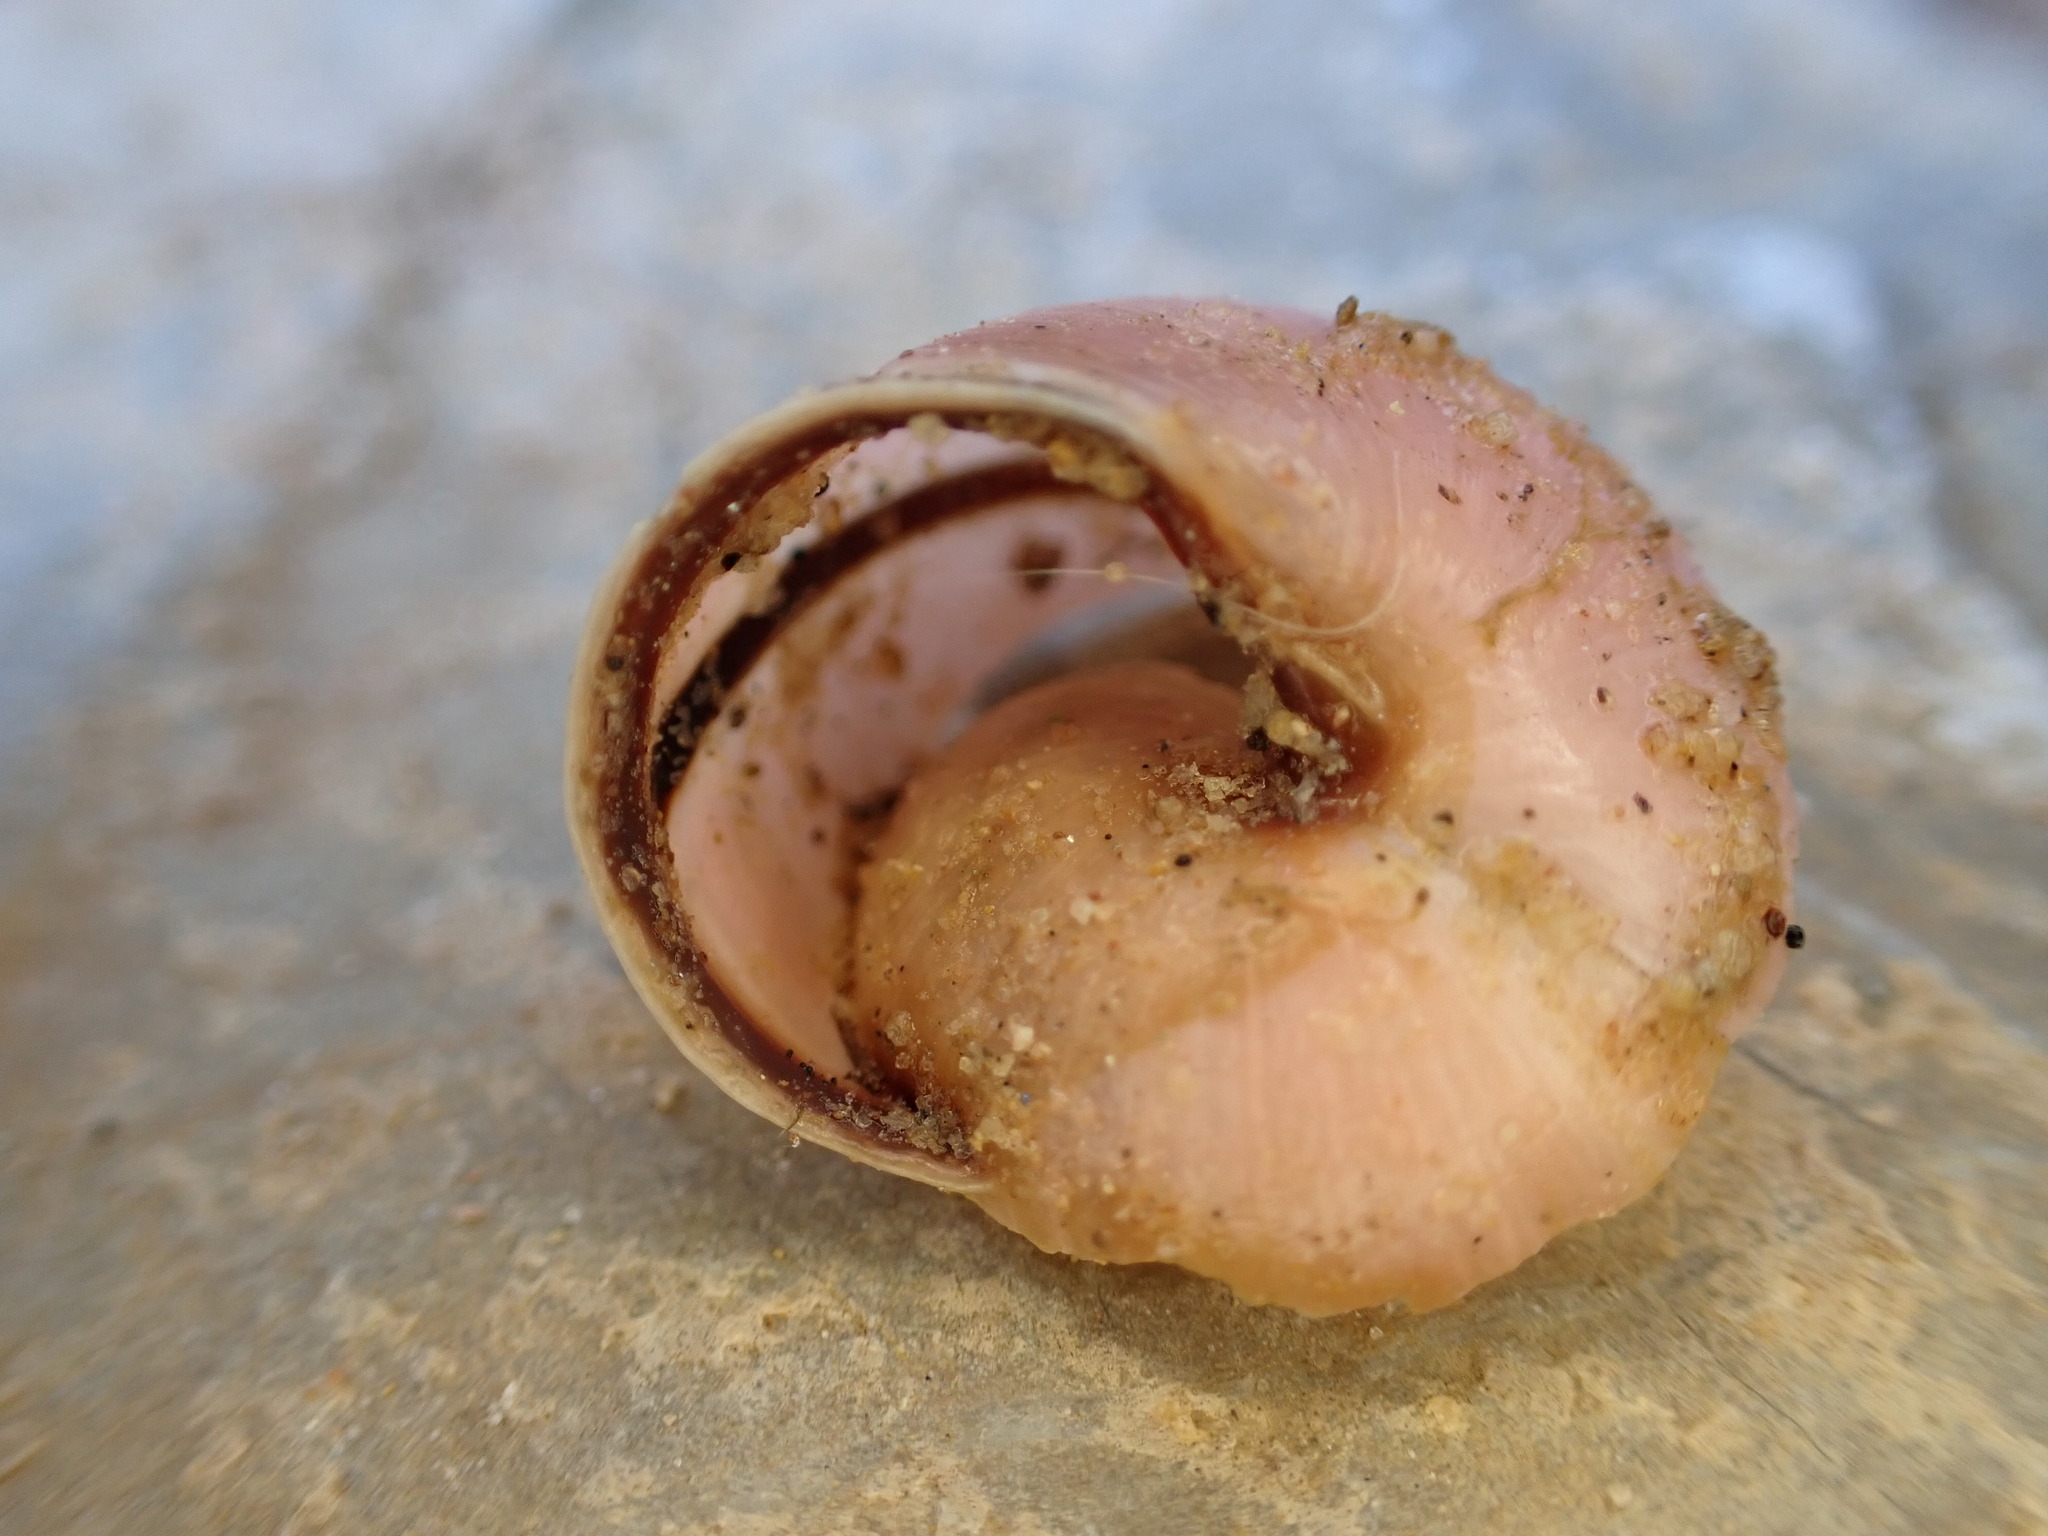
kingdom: Animalia
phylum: Mollusca
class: Gastropoda
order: Stylommatophora
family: Helicidae
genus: Cepaea
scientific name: Cepaea nemoralis
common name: Grovesnail
